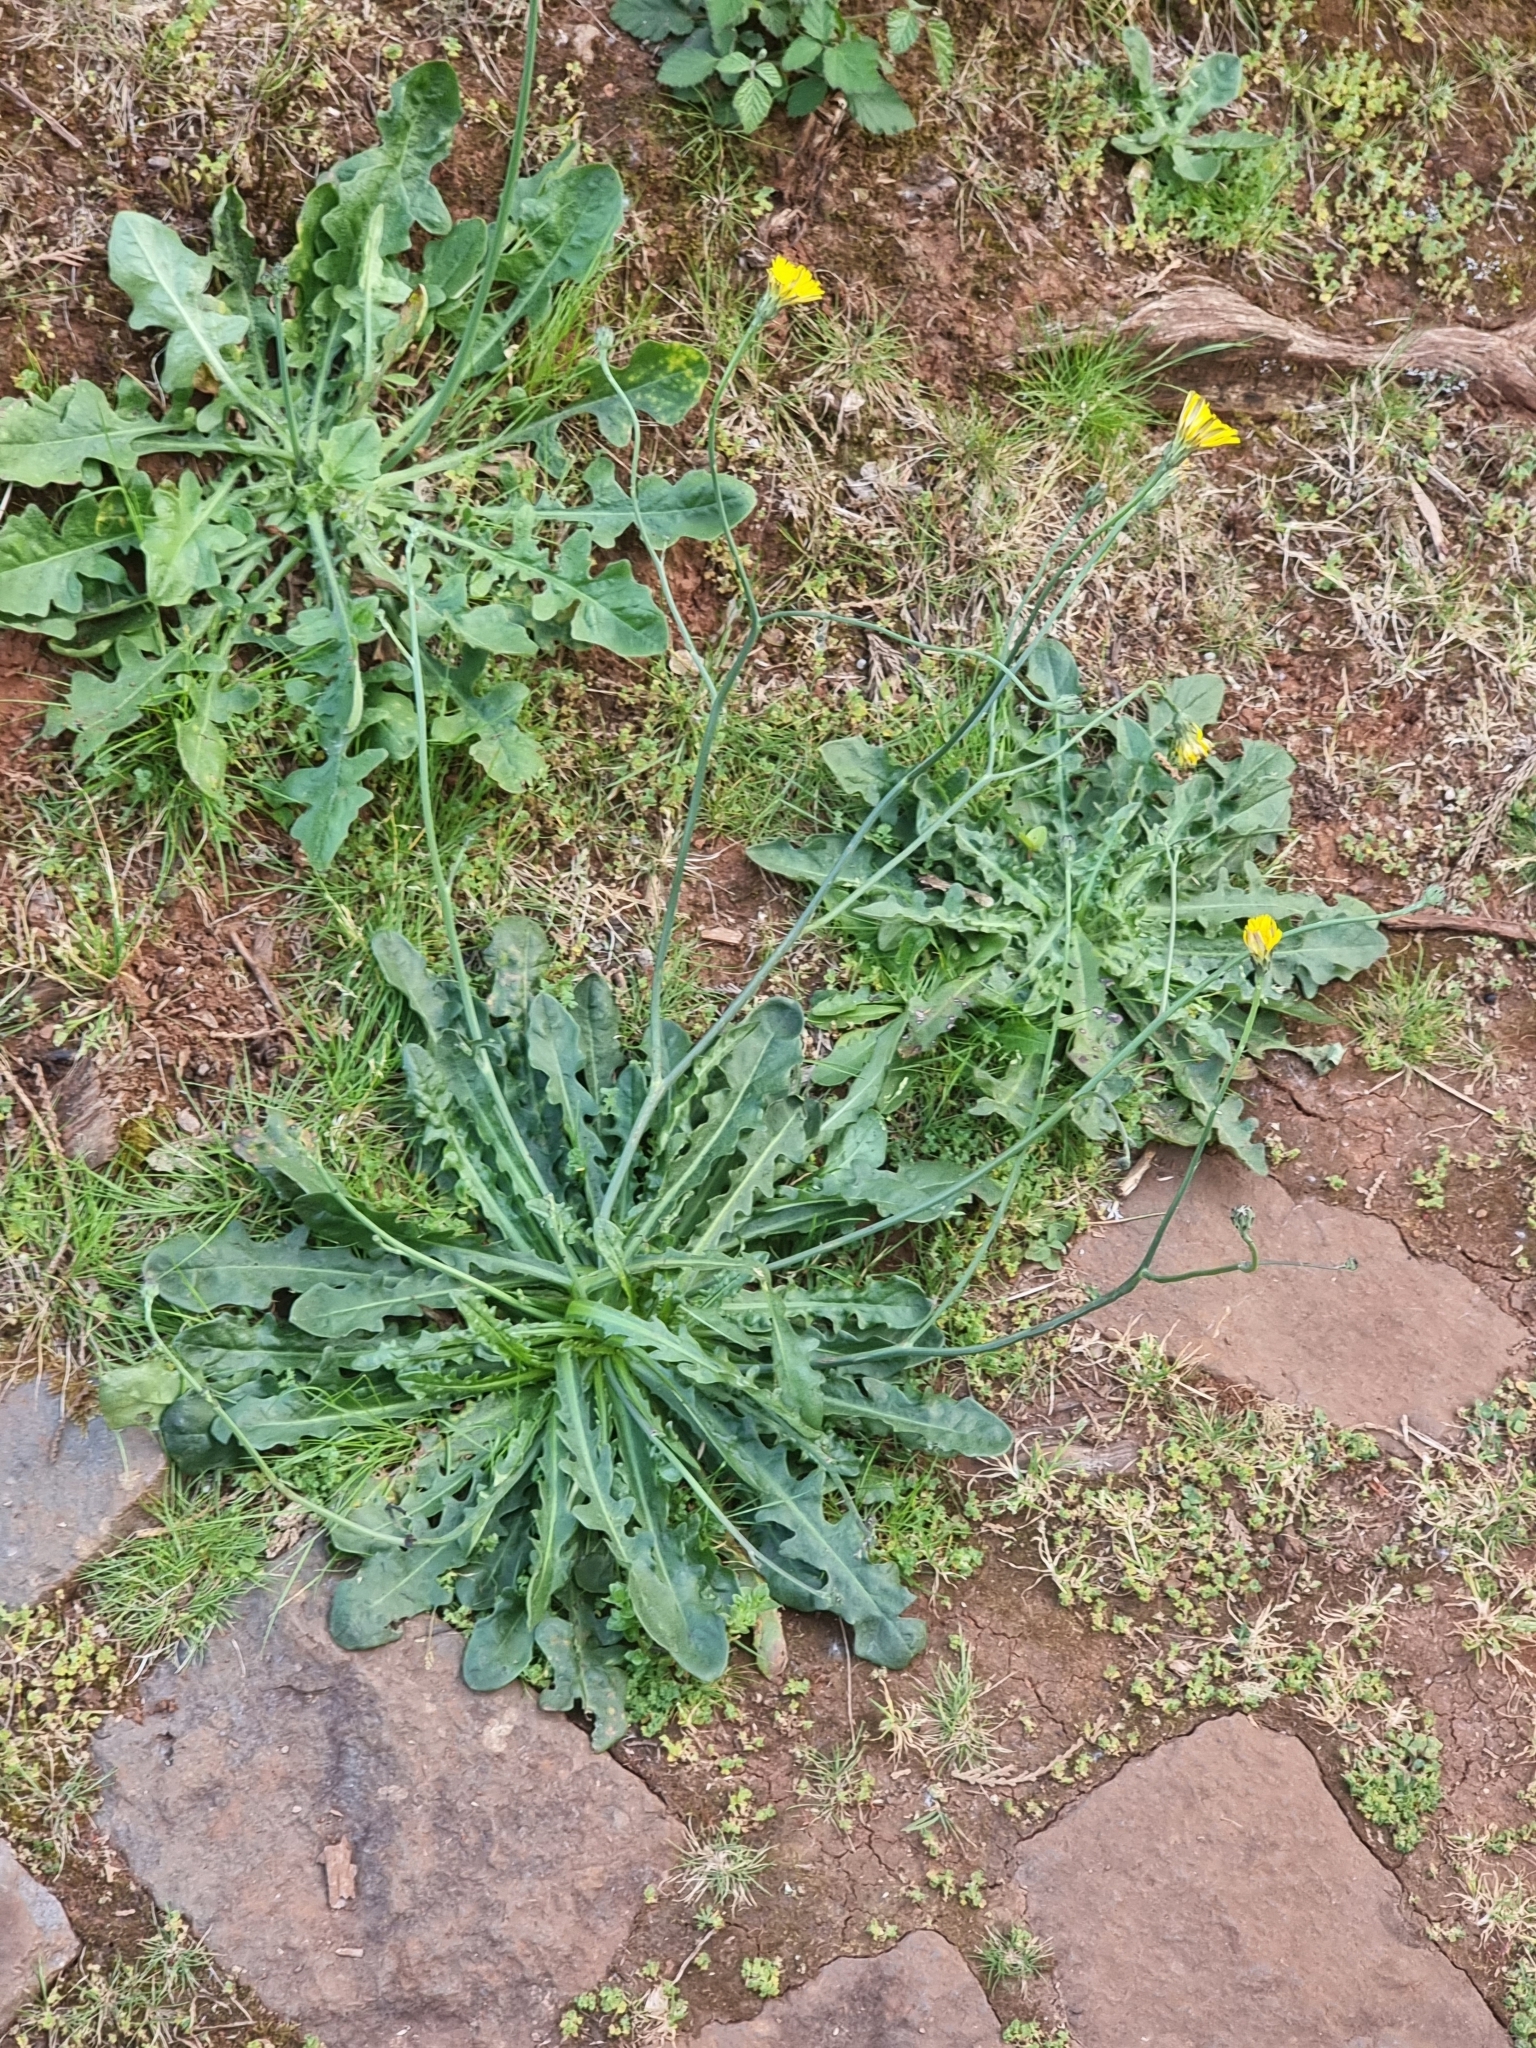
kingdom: Plantae
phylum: Tracheophyta
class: Magnoliopsida
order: Asterales
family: Asteraceae
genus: Hypochaeris
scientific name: Hypochaeris radicata
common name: Flatweed
